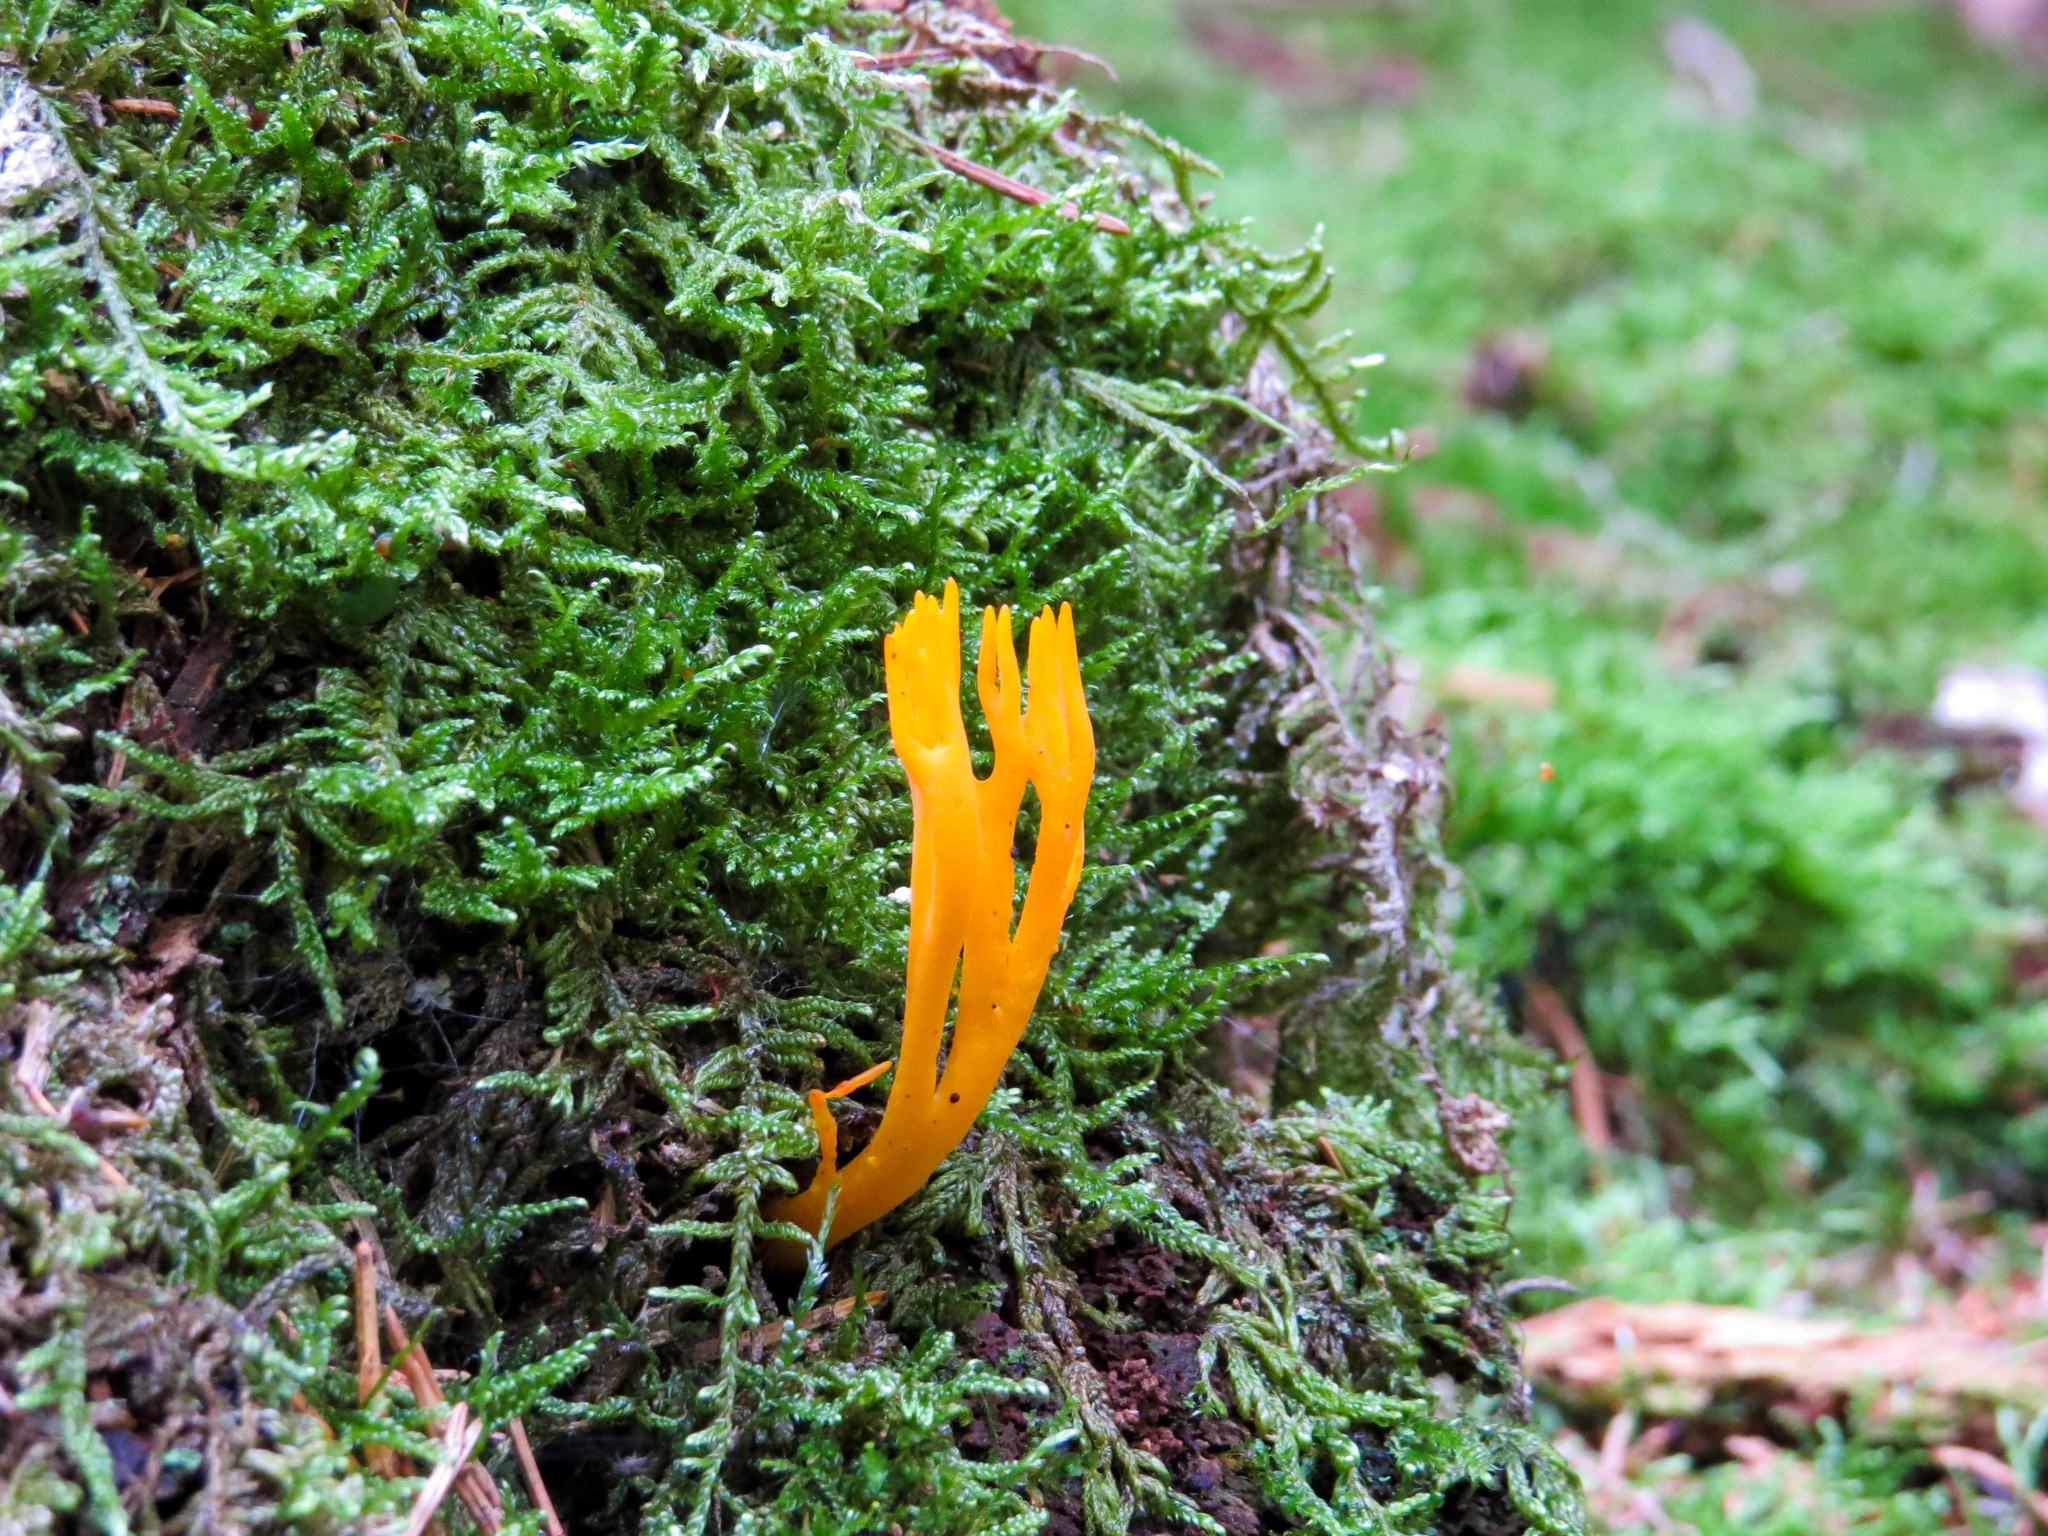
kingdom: Fungi
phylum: Basidiomycota
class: Dacrymycetes
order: Dacrymycetales
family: Dacrymycetaceae
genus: Calocera
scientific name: Calocera viscosa
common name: Yellow stagshorn
